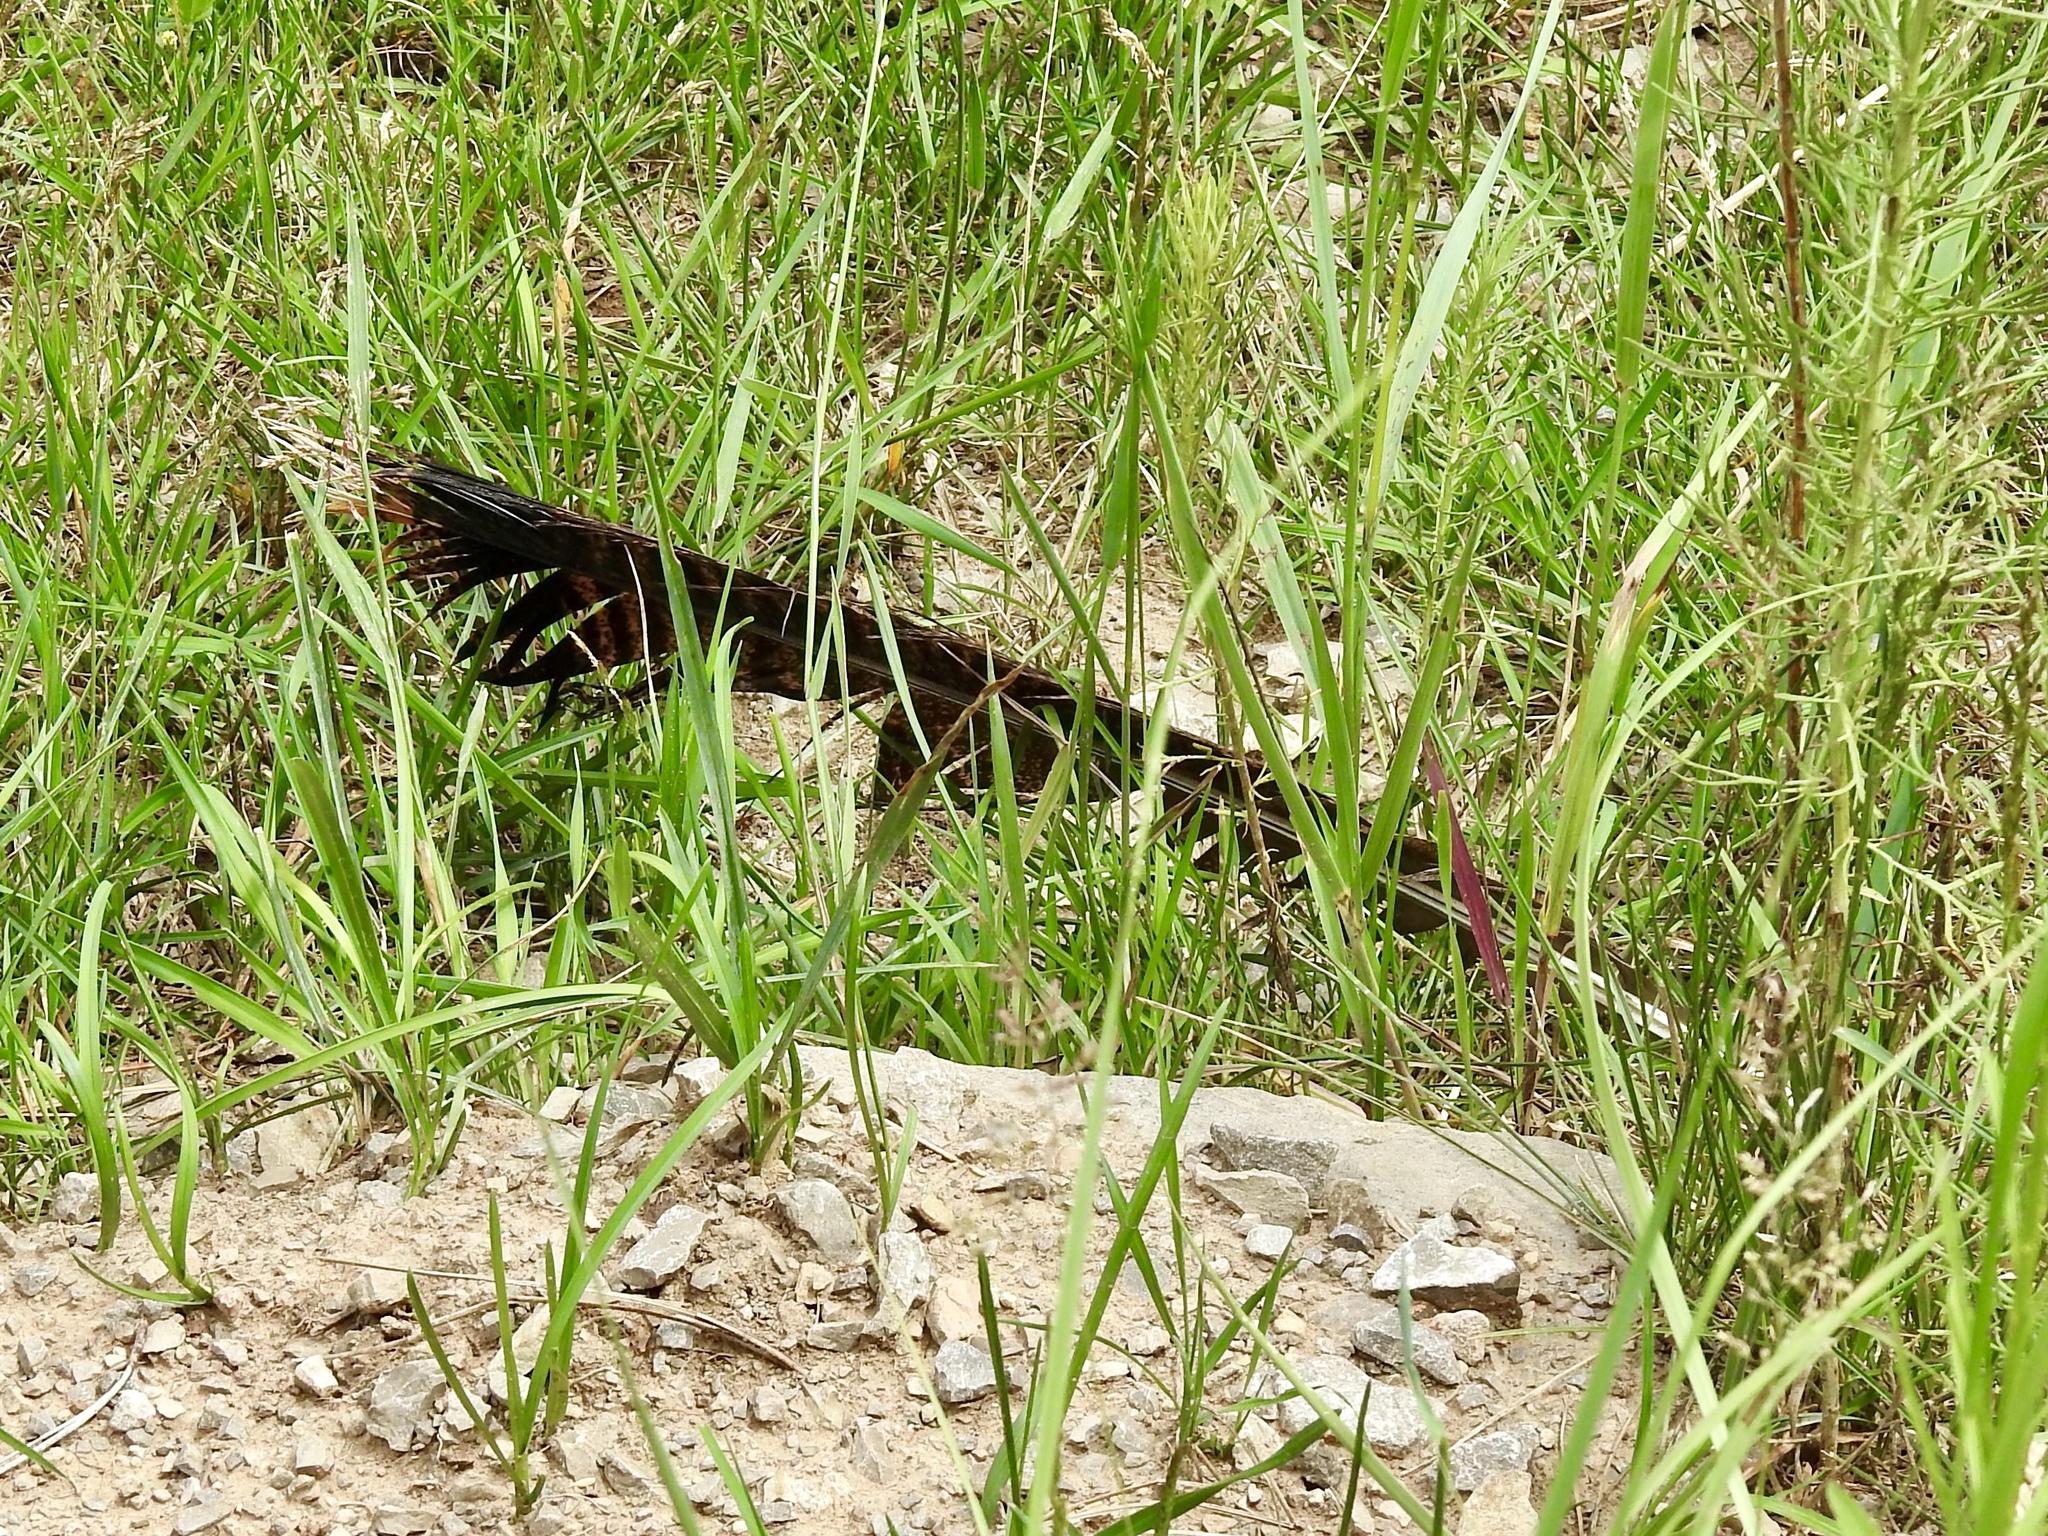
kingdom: Animalia
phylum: Chordata
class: Aves
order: Galliformes
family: Phasianidae
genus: Meleagris
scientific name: Meleagris gallopavo
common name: Wild turkey
